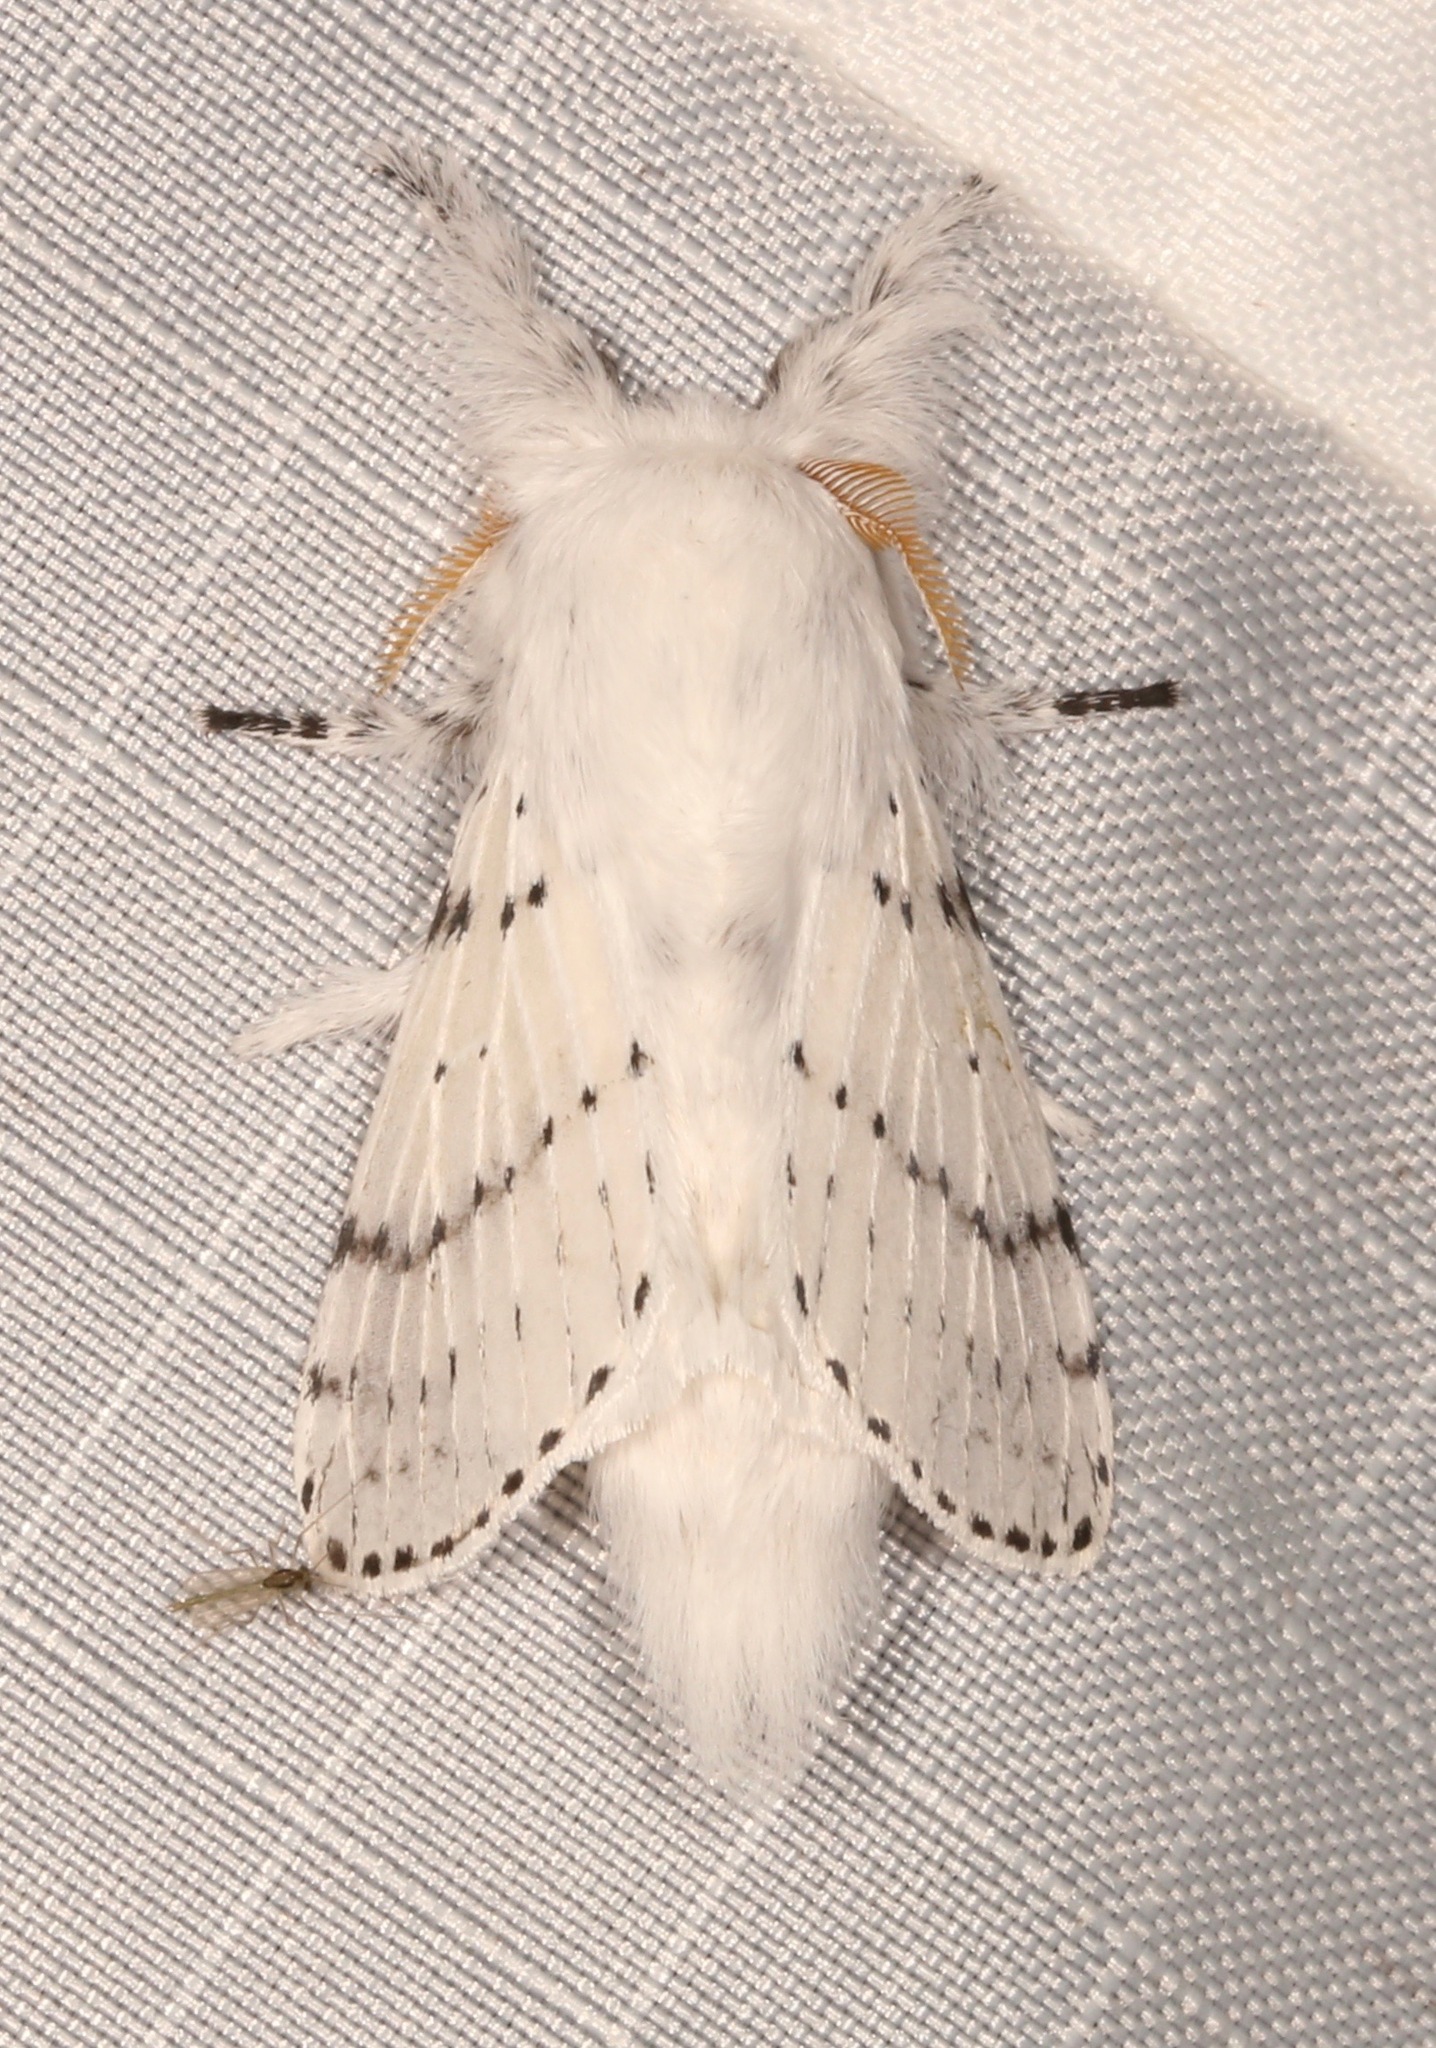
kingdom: Animalia
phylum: Arthropoda
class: Insecta
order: Lepidoptera
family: Lasiocampidae
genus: Artace
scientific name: Artace cribrarius
